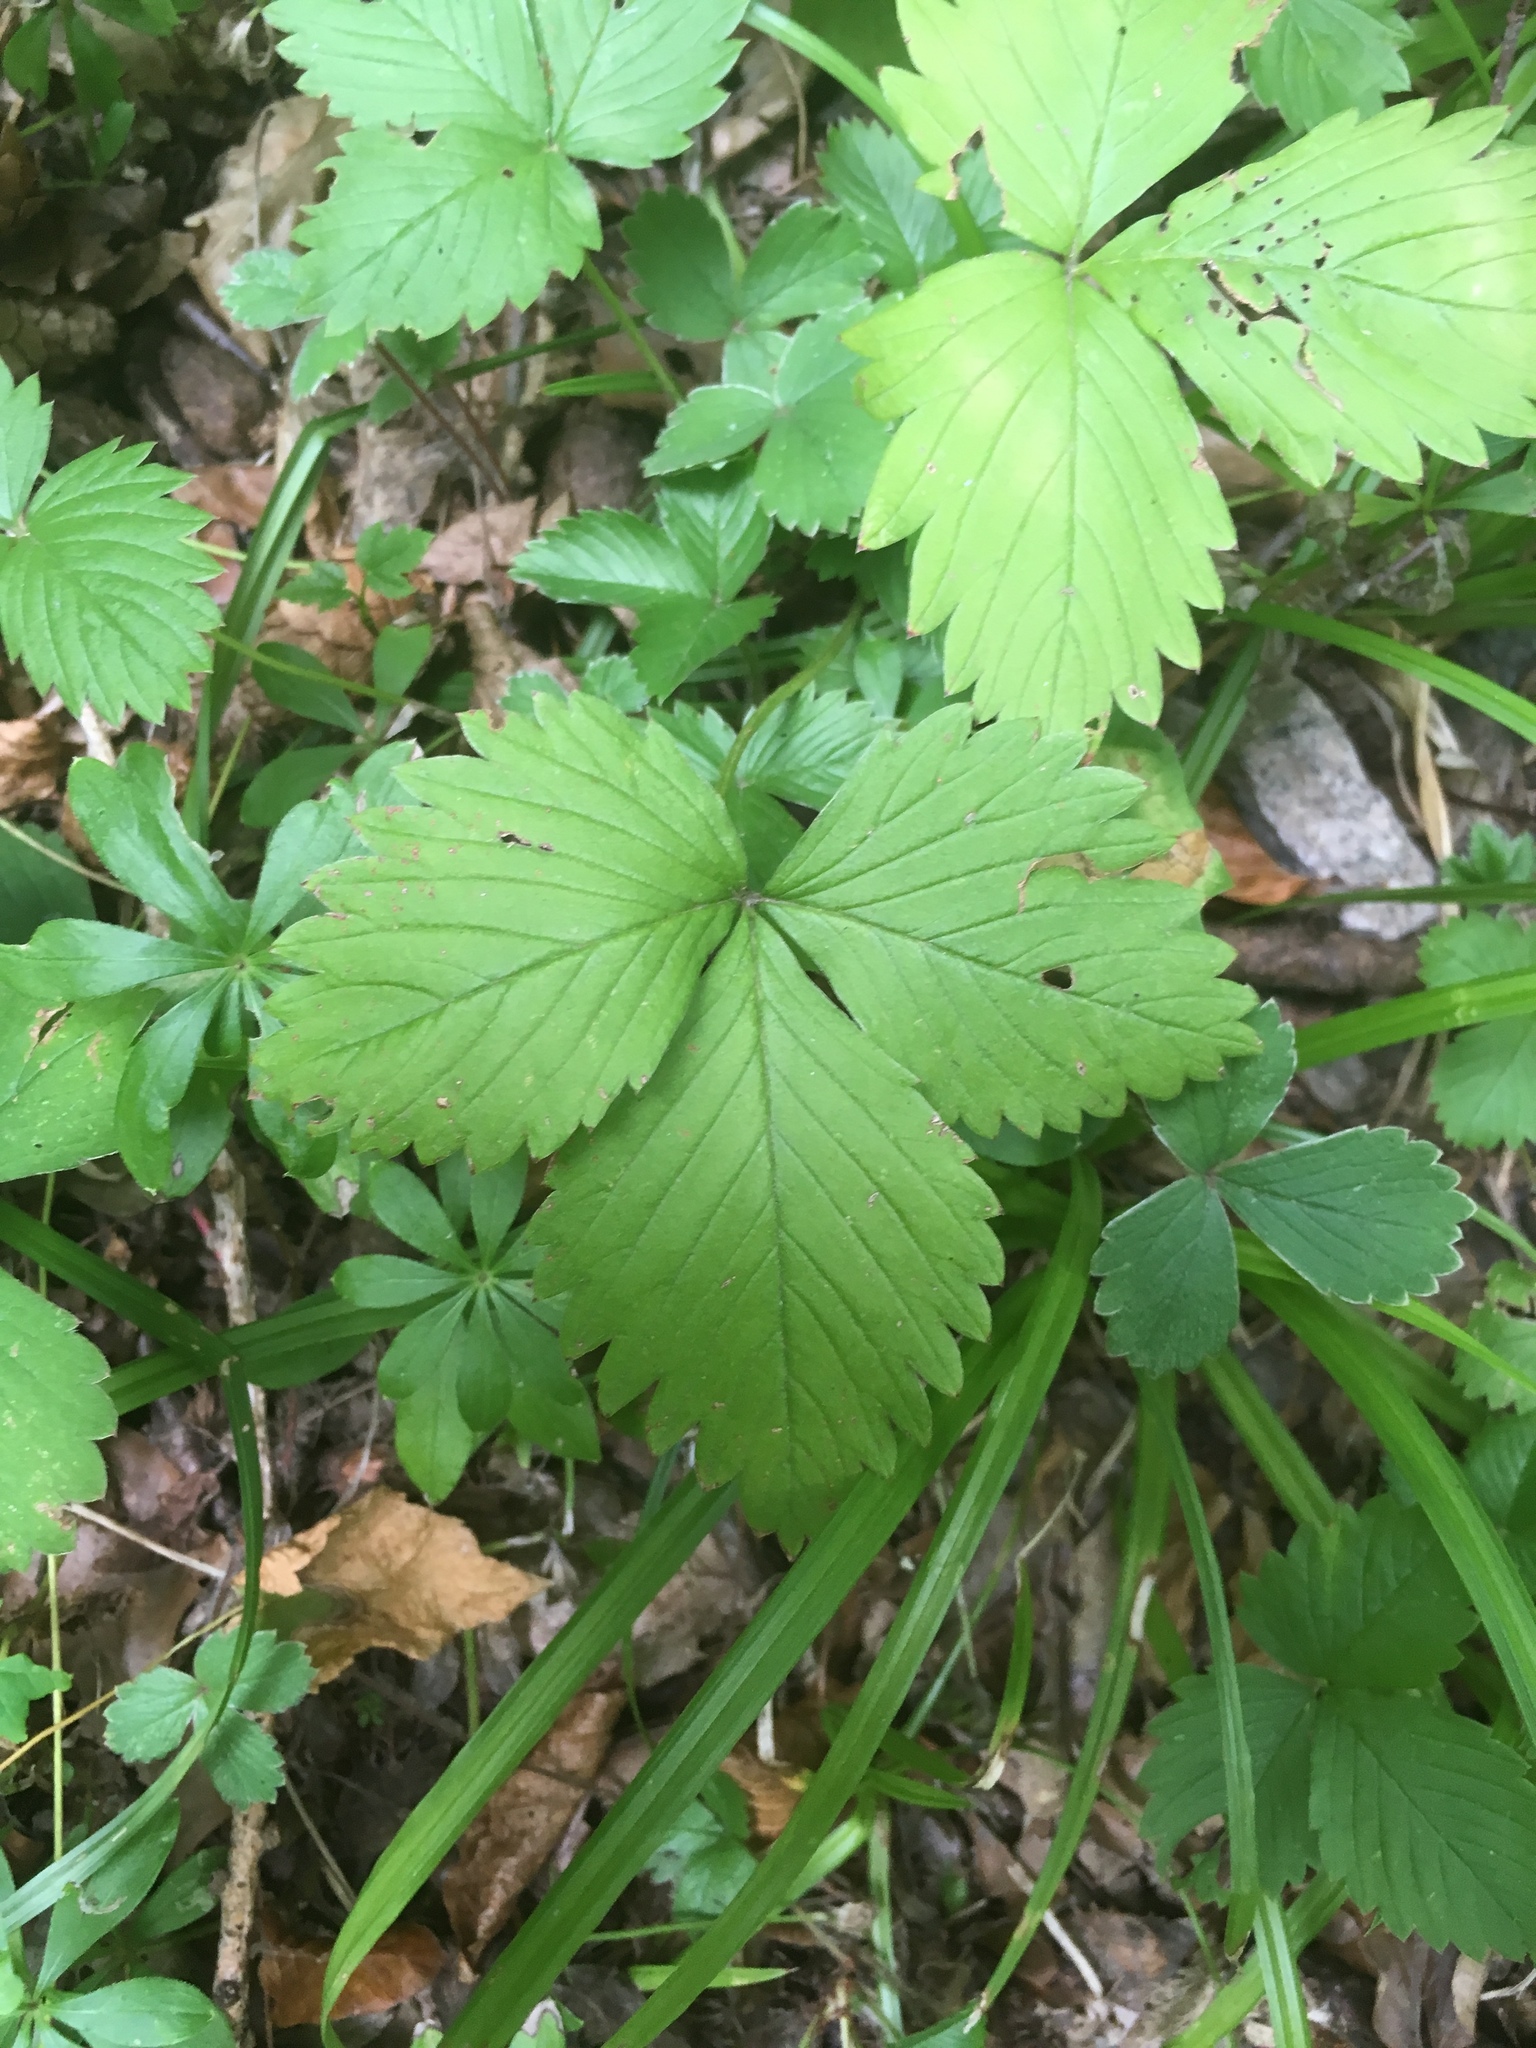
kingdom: Plantae
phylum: Tracheophyta
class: Magnoliopsida
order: Rosales
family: Rosaceae
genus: Fragaria
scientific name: Fragaria vesca
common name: Wild strawberry
